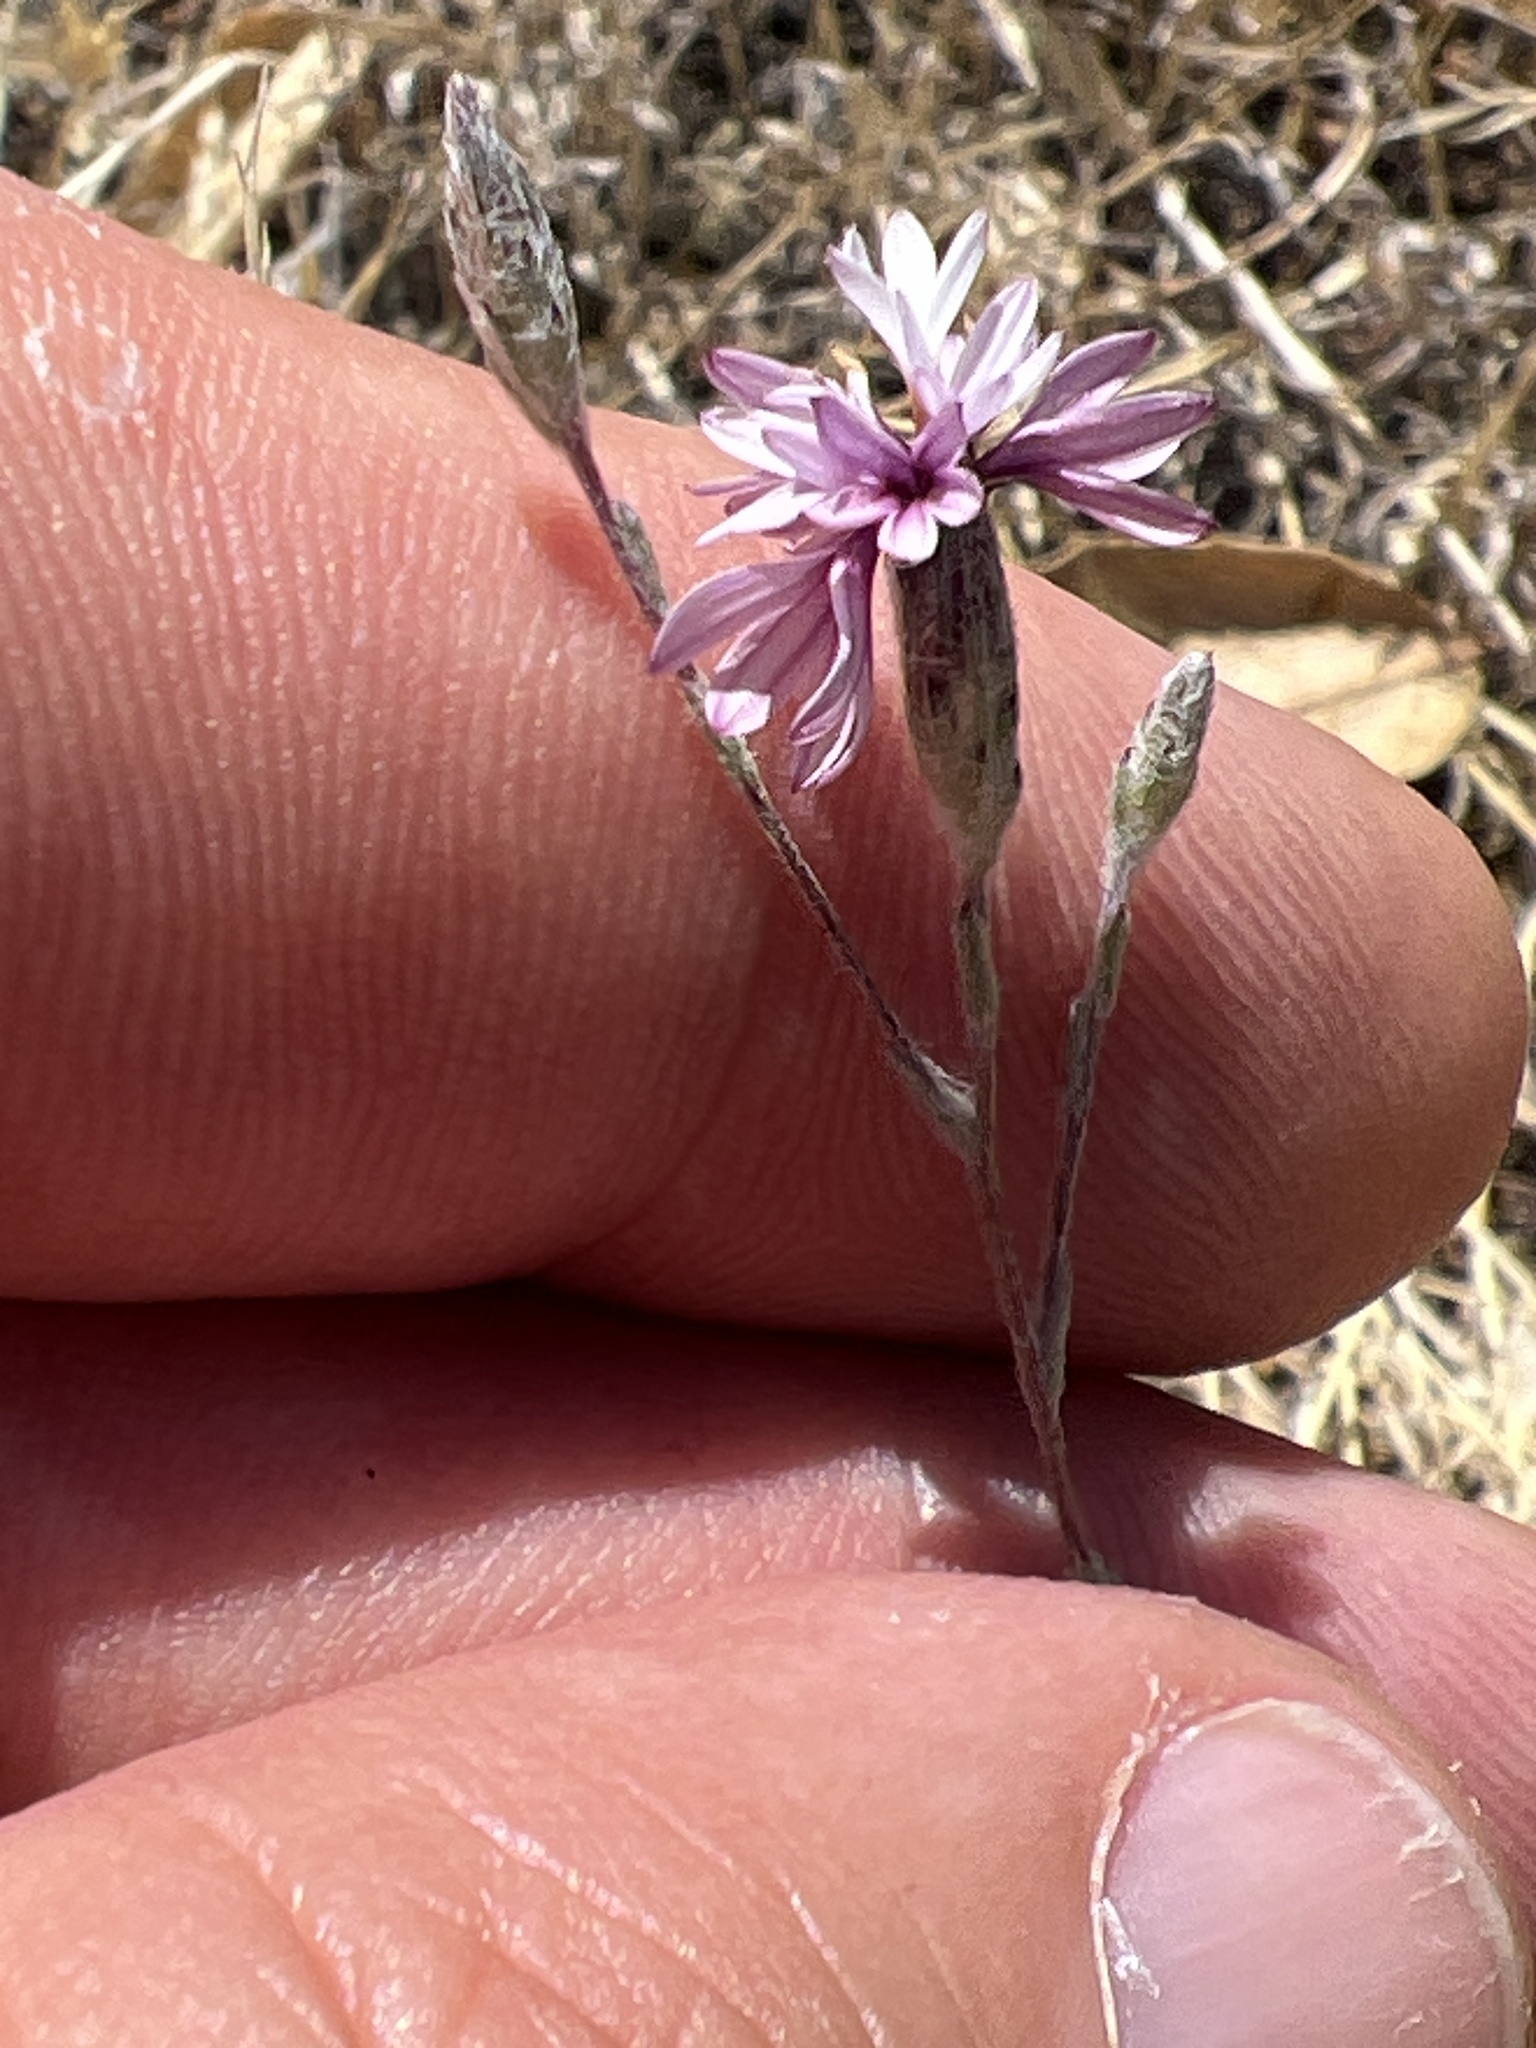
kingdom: Plantae
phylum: Tracheophyta
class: Magnoliopsida
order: Asterales
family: Asteraceae
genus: Lessingia
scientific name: Lessingia hololeuca
